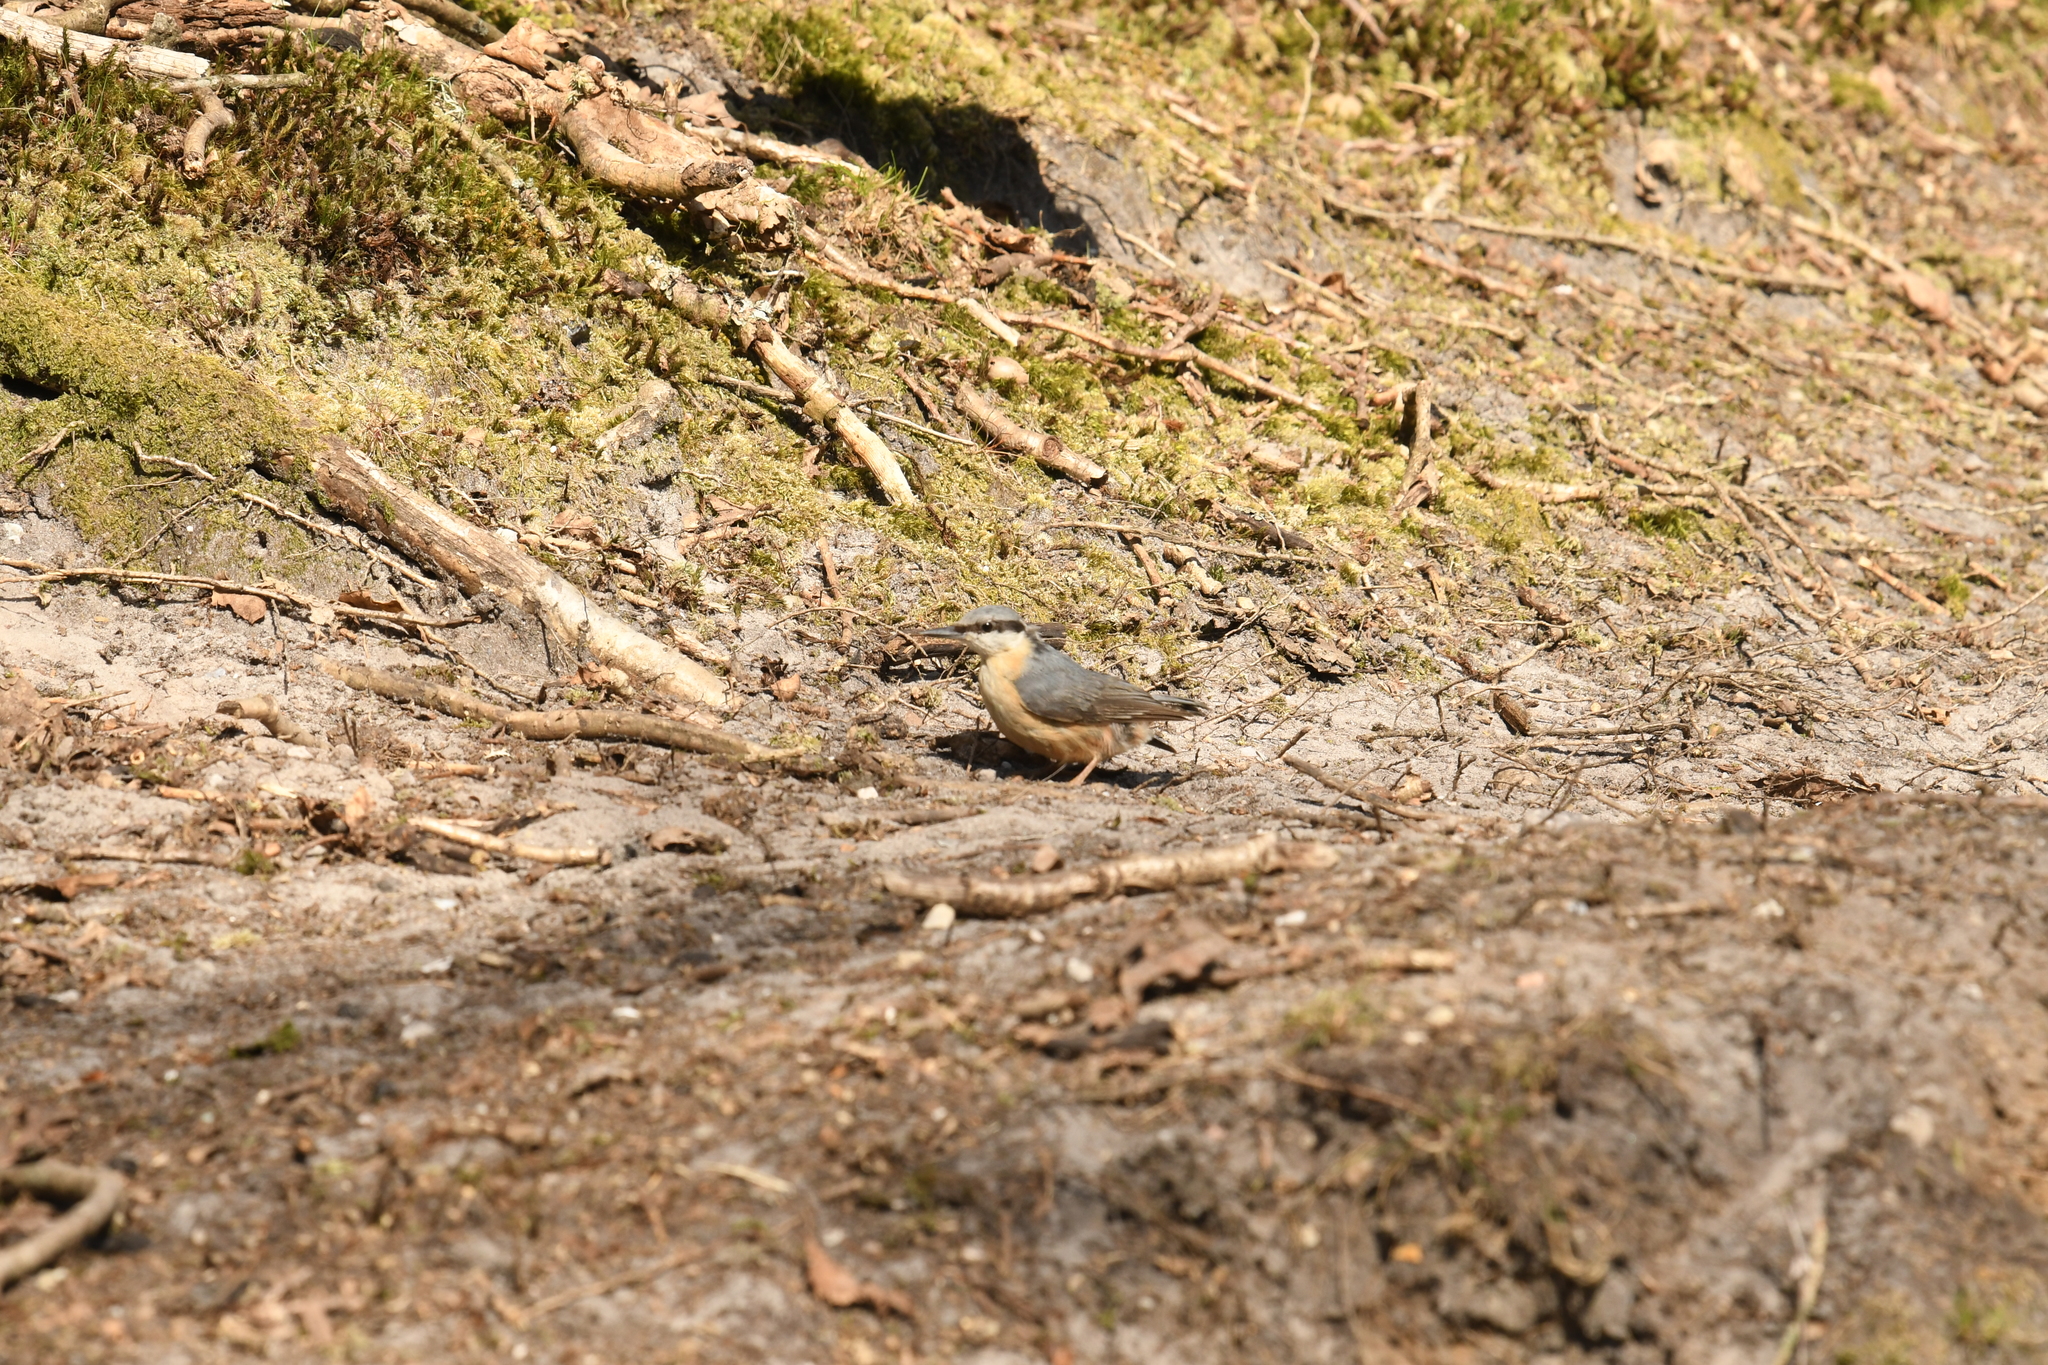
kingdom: Animalia
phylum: Chordata
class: Aves
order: Passeriformes
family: Sittidae
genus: Sitta
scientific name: Sitta europaea
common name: Eurasian nuthatch
